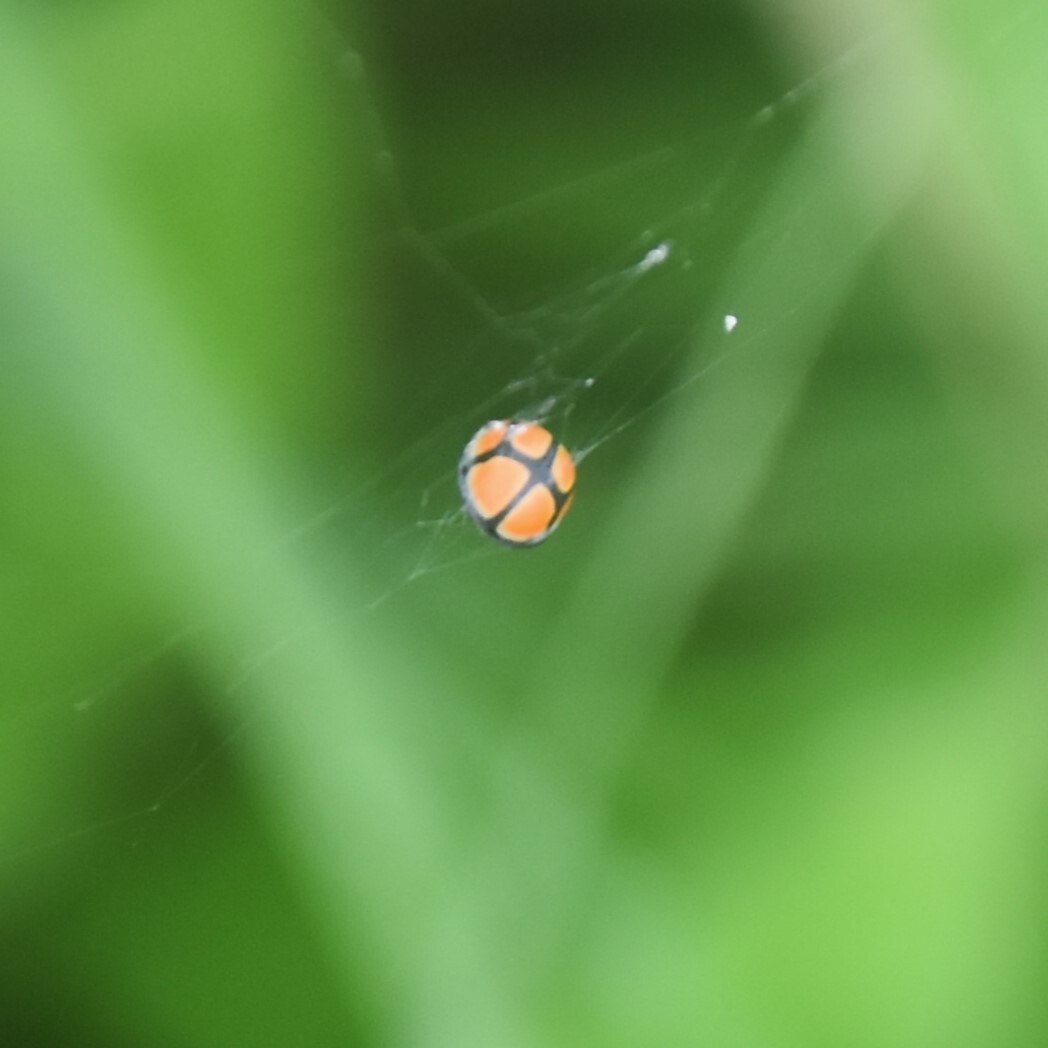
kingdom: Animalia
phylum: Arthropoda
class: Insecta
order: Coleoptera
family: Coccinellidae
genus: Oenopia
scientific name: Oenopia sexareata
